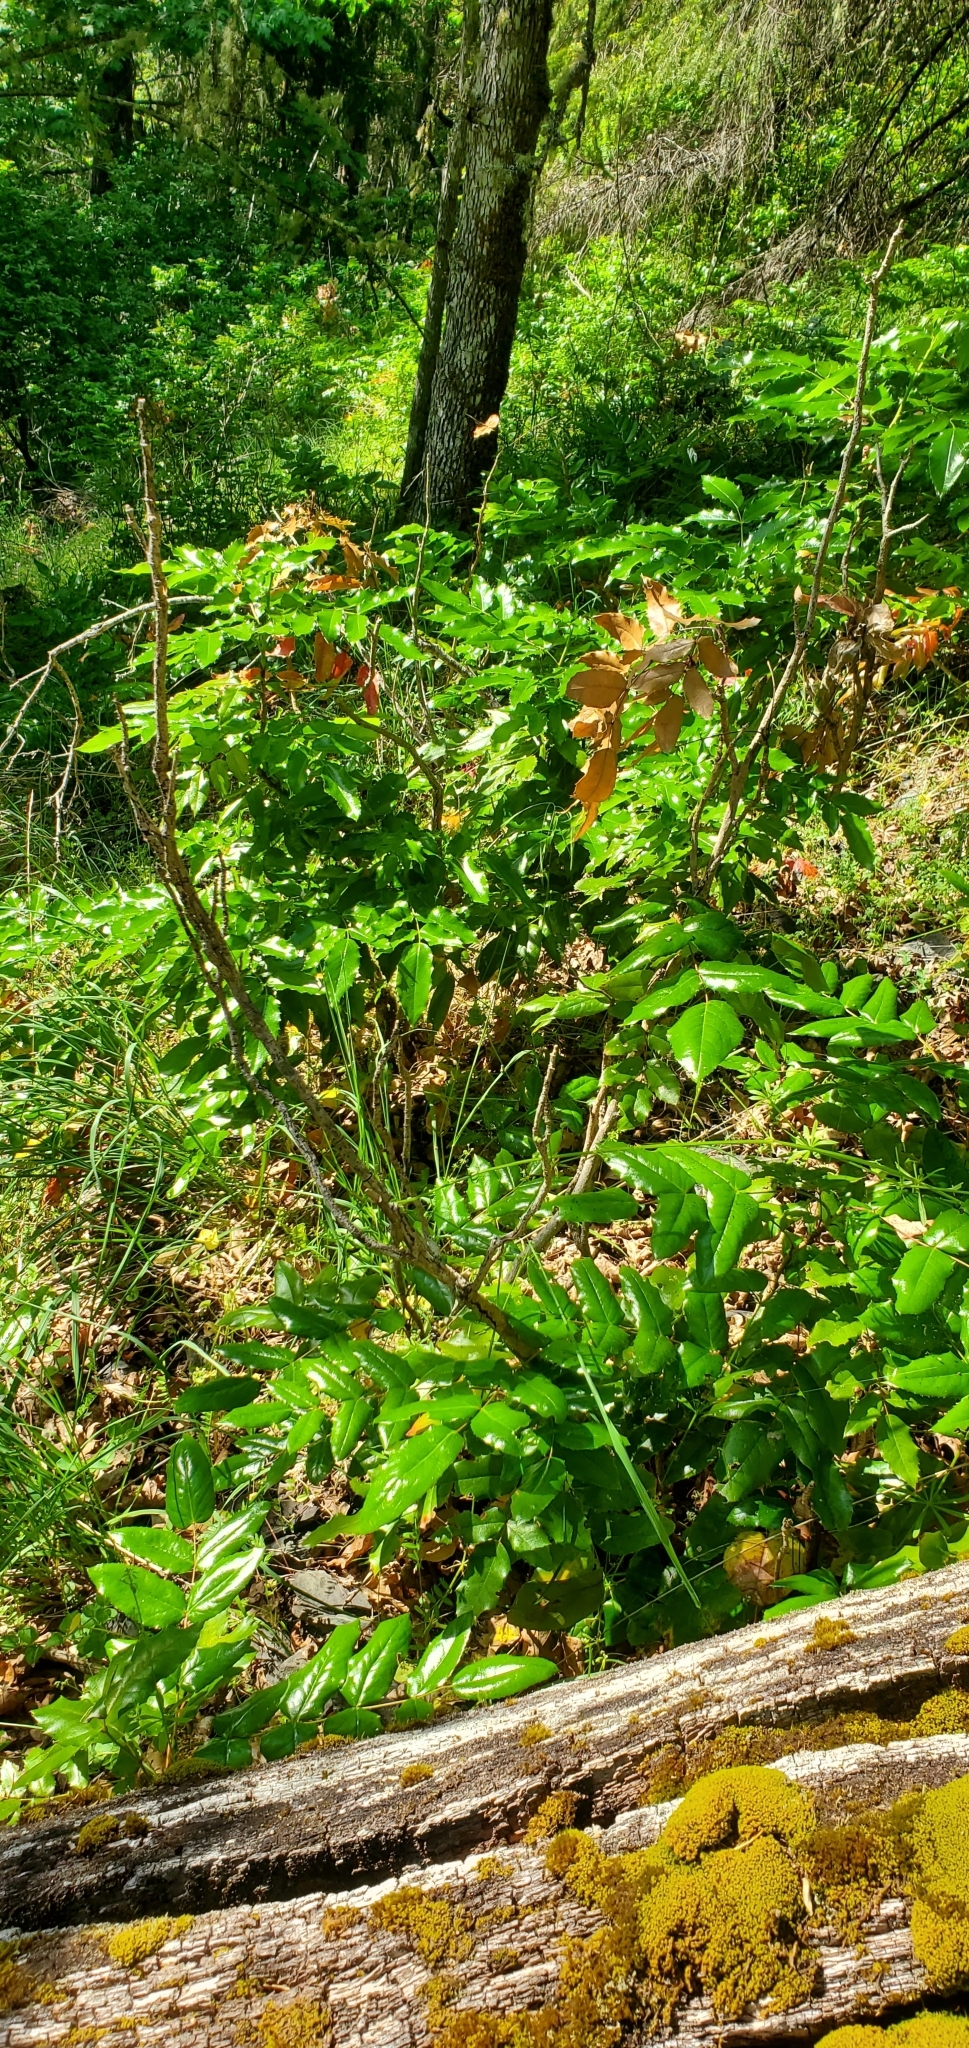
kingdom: Plantae
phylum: Tracheophyta
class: Magnoliopsida
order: Ranunculales
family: Berberidaceae
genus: Mahonia
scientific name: Mahonia aquifolium
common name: Oregon-grape
